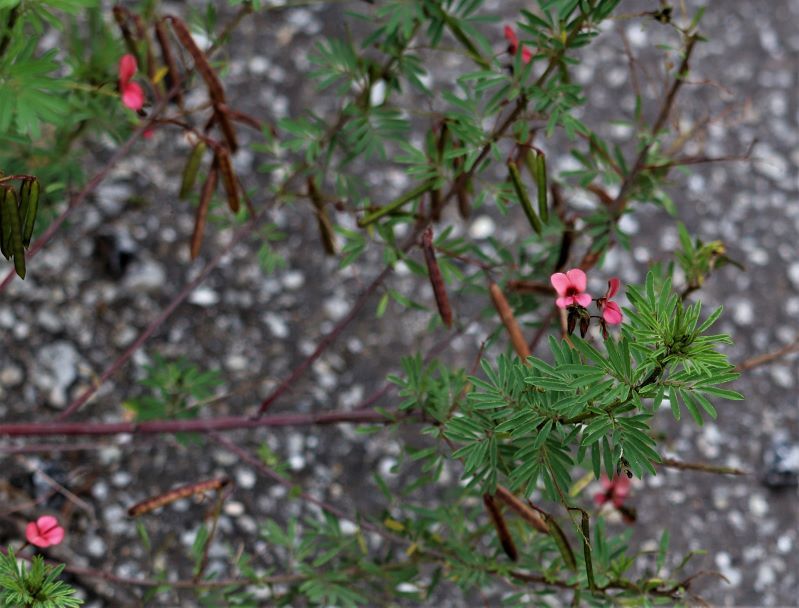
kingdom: Plantae
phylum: Tracheophyta
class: Magnoliopsida
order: Fabales
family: Fabaceae
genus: Indigofera
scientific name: Indigofera verrucosa
